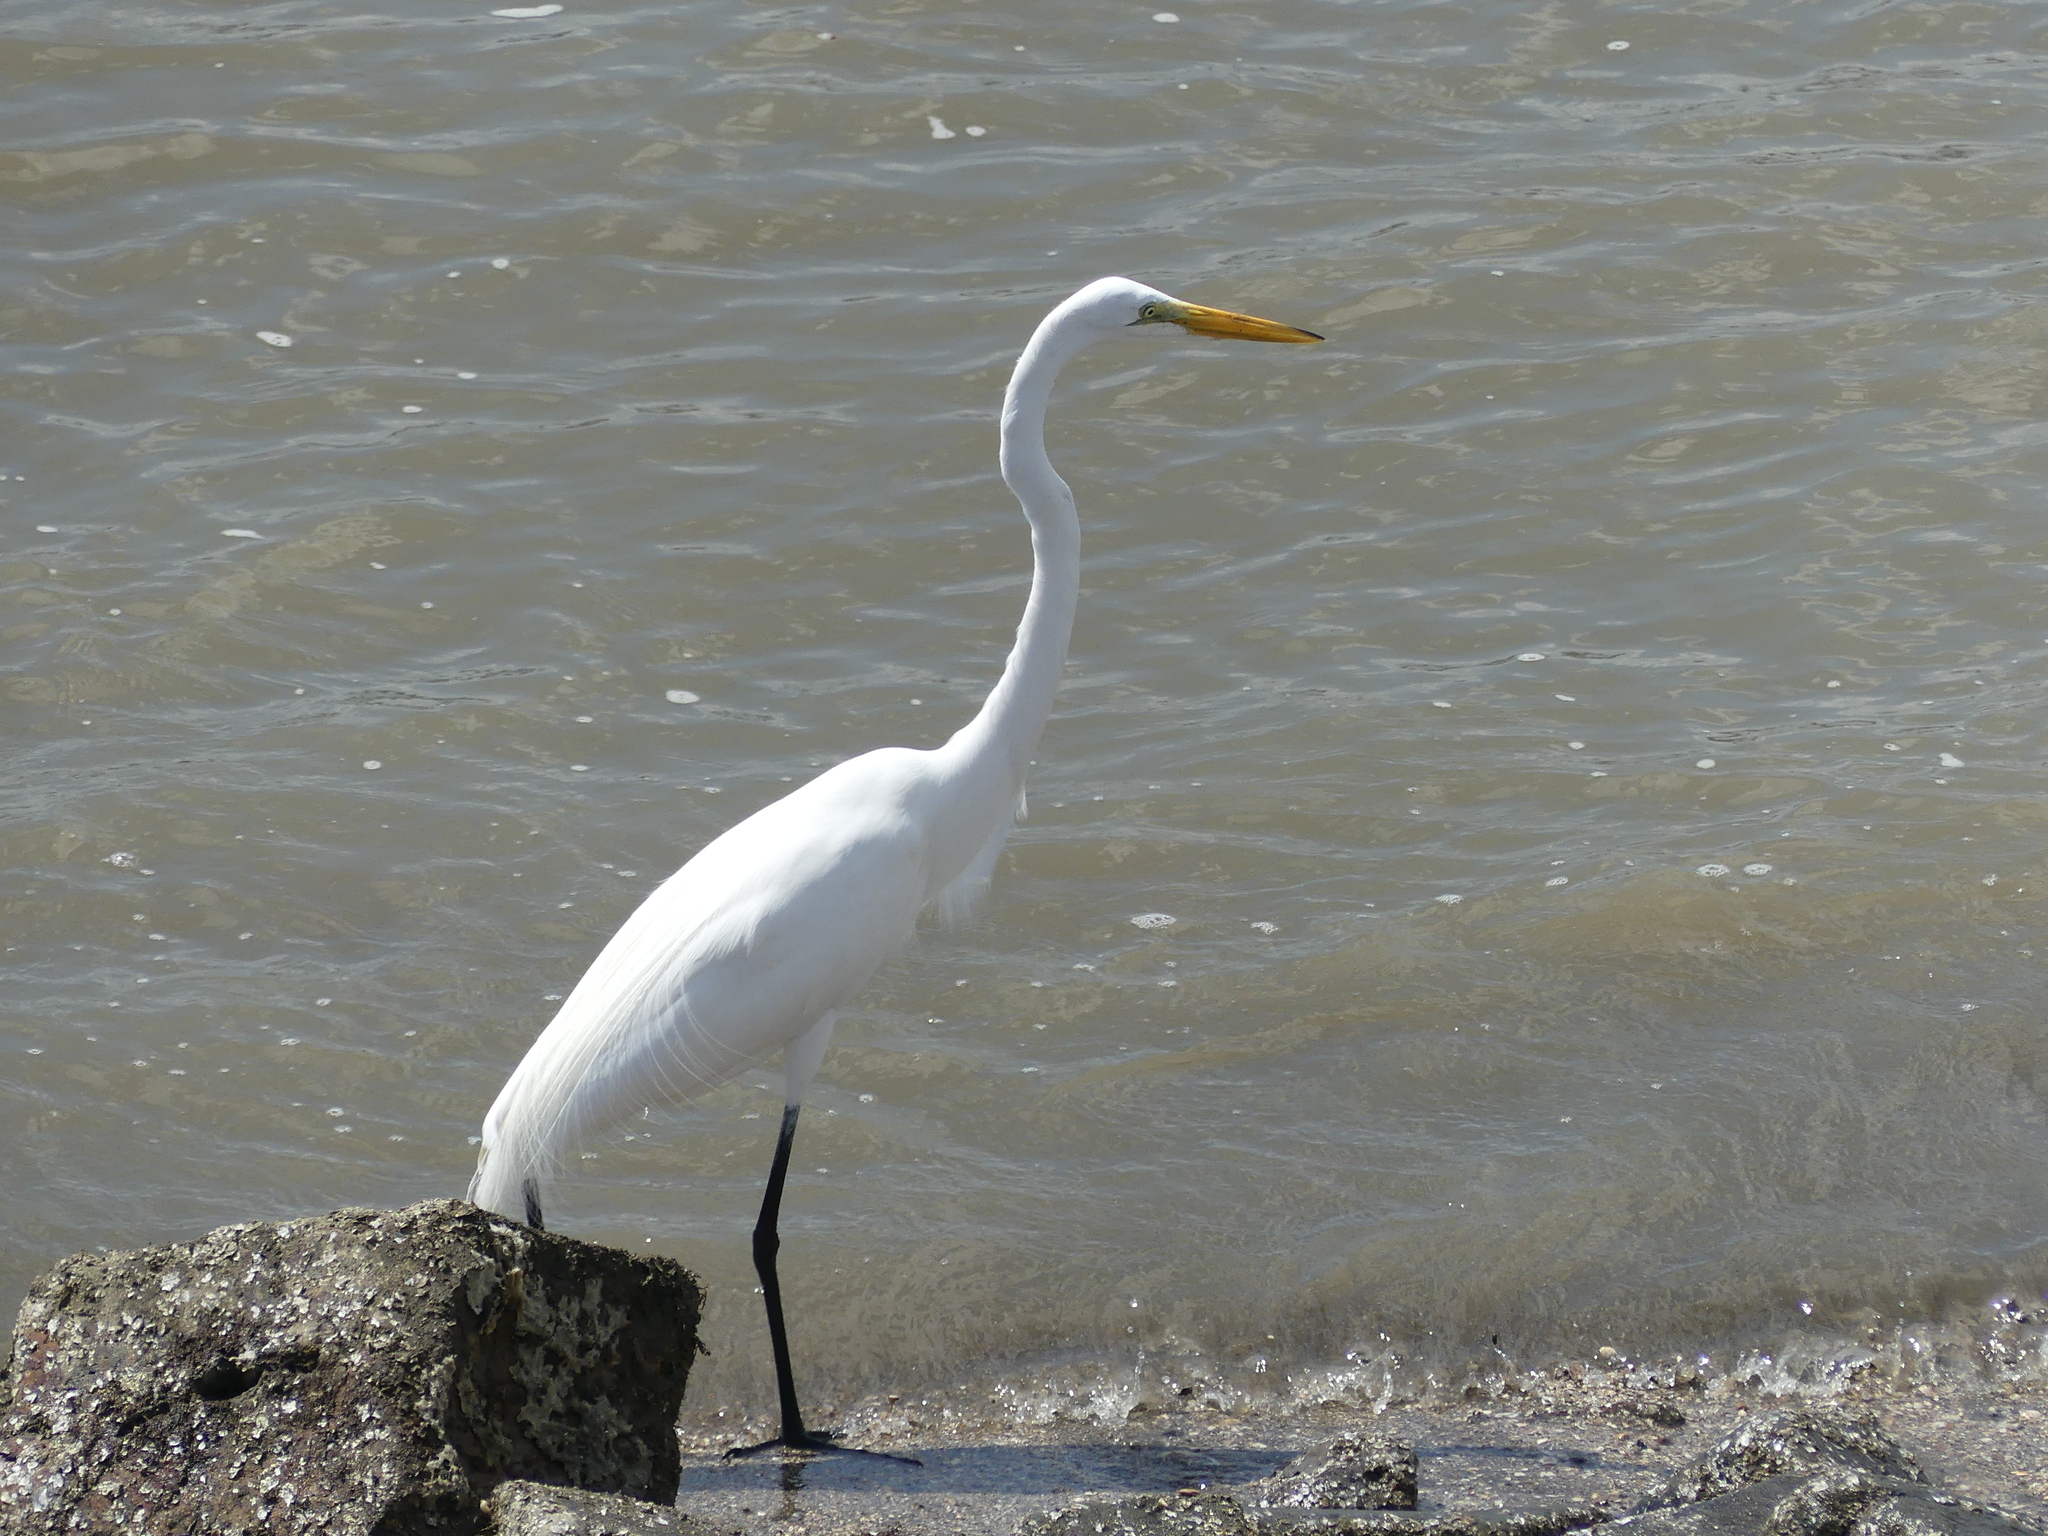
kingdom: Animalia
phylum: Chordata
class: Aves
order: Pelecaniformes
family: Ardeidae
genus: Ardea
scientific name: Ardea alba
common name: Great egret
